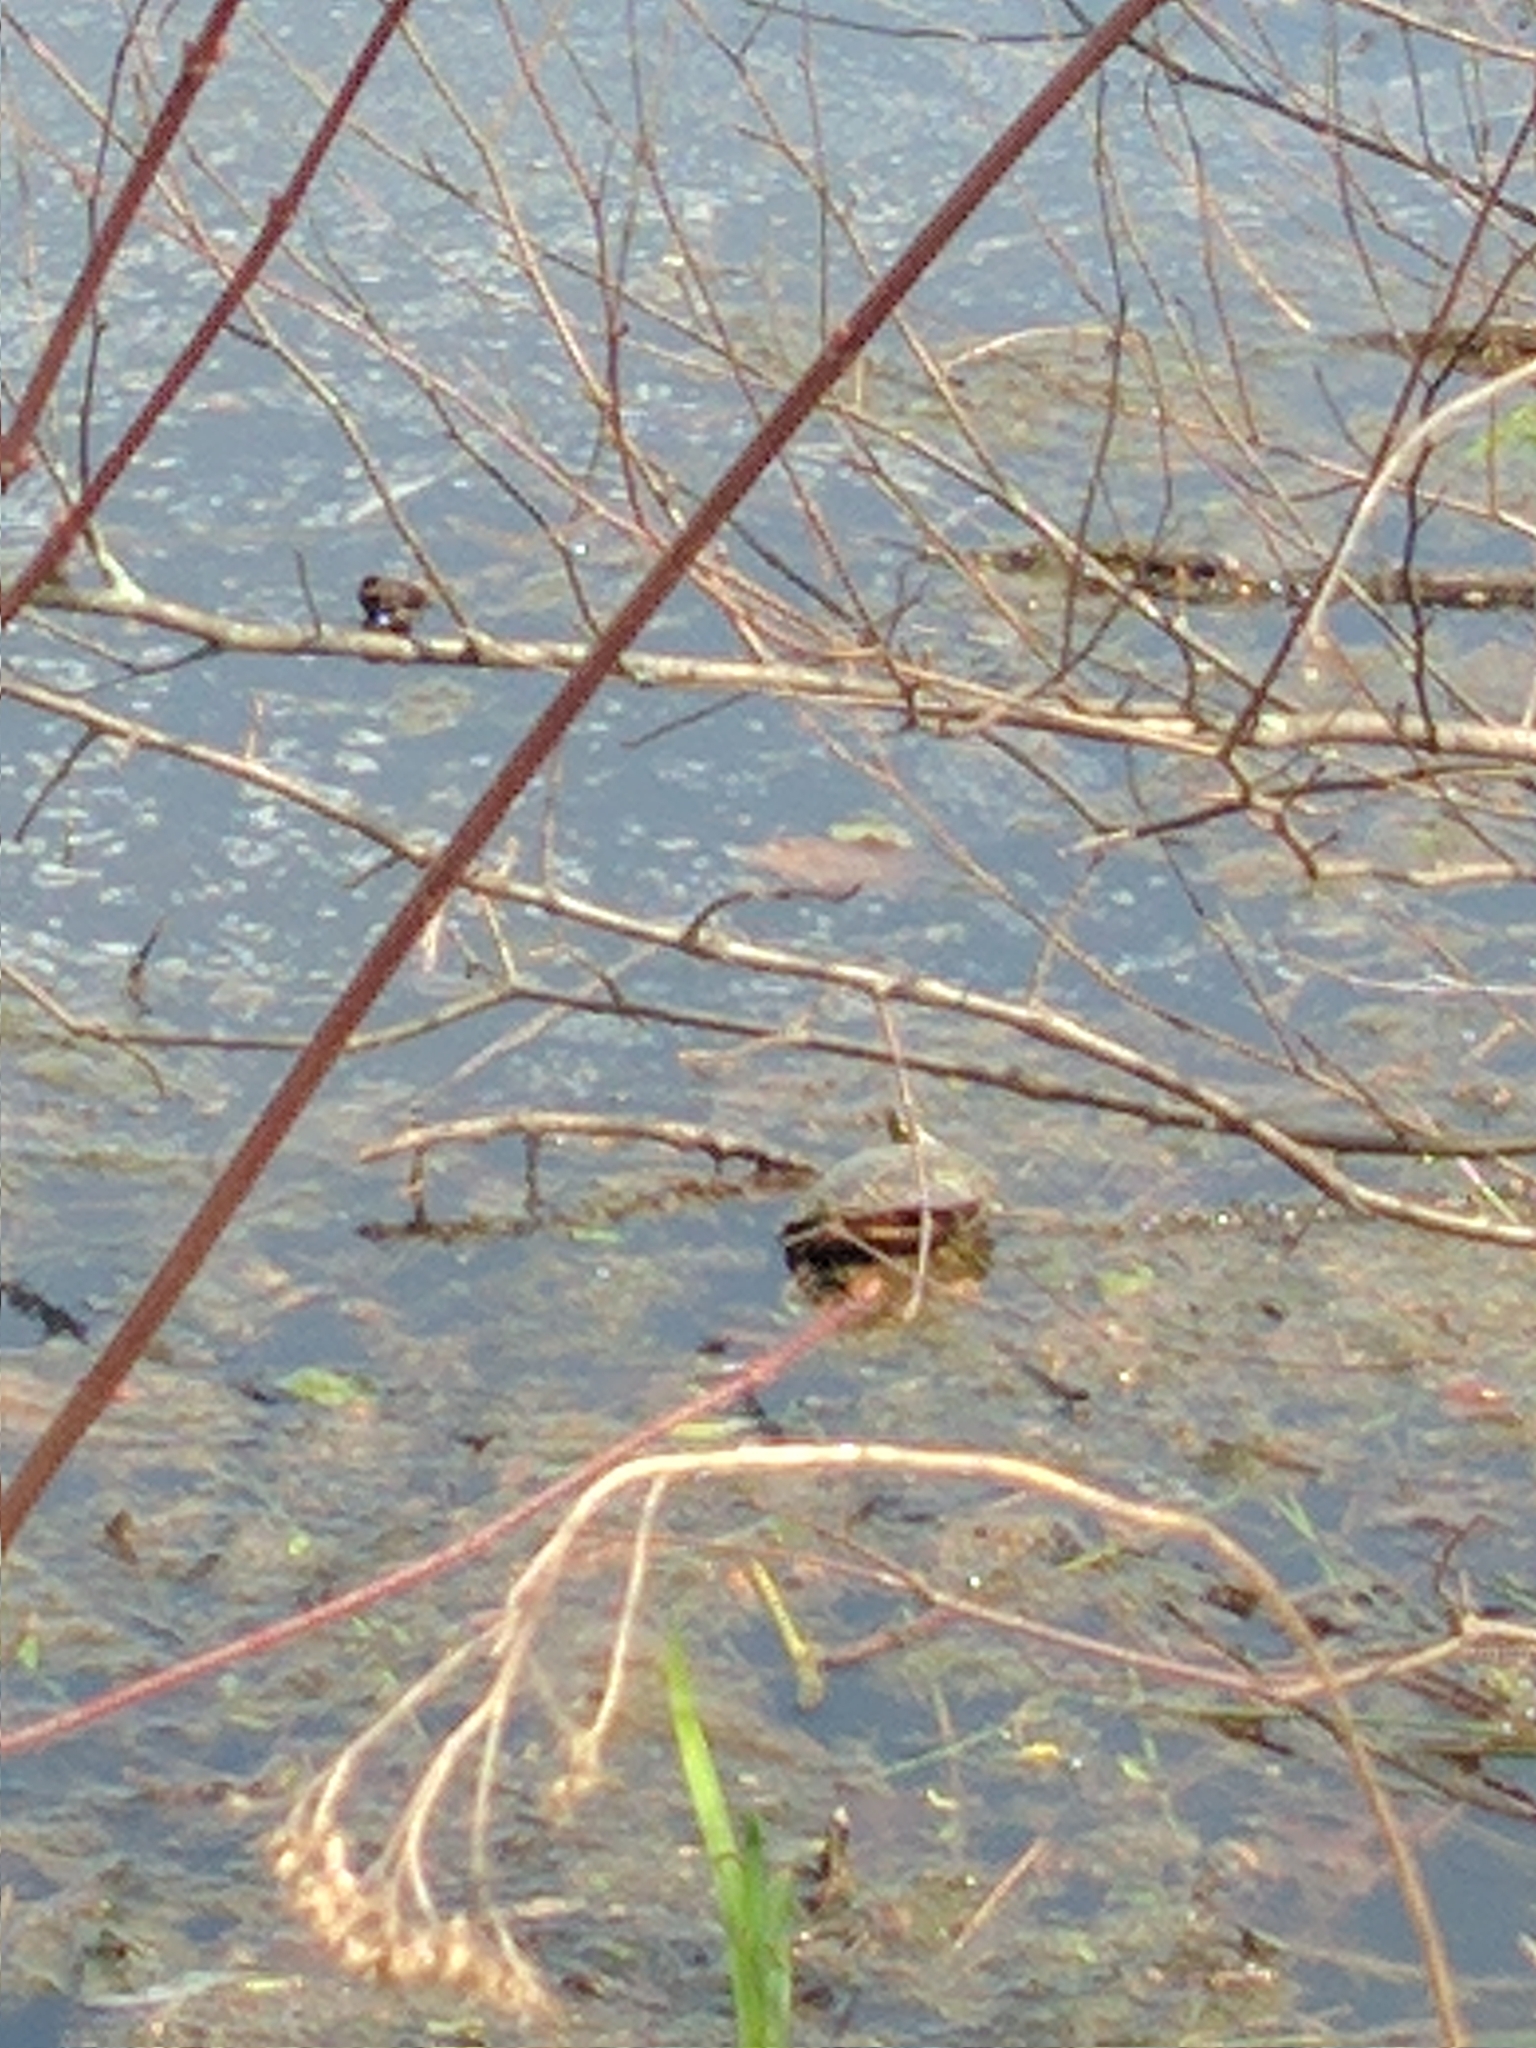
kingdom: Animalia
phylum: Chordata
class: Testudines
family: Emydidae
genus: Chrysemys
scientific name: Chrysemys picta
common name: Painted turtle
